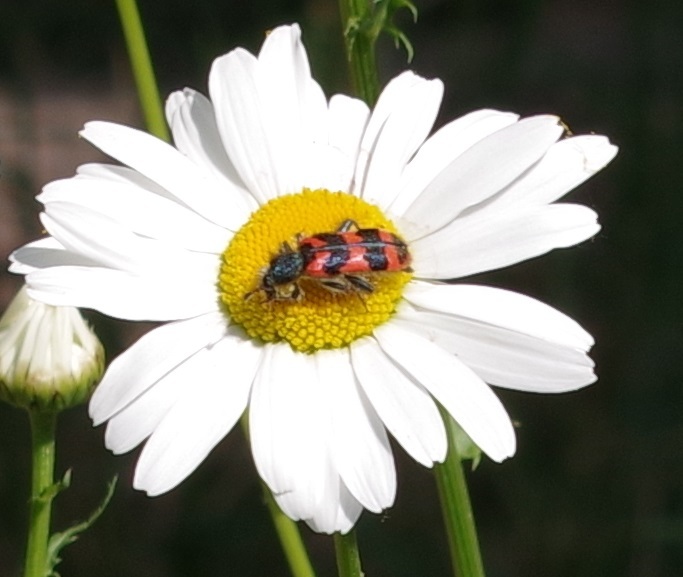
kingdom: Animalia
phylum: Arthropoda
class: Insecta
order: Coleoptera
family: Cleridae
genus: Trichodes
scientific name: Trichodes alvearius
